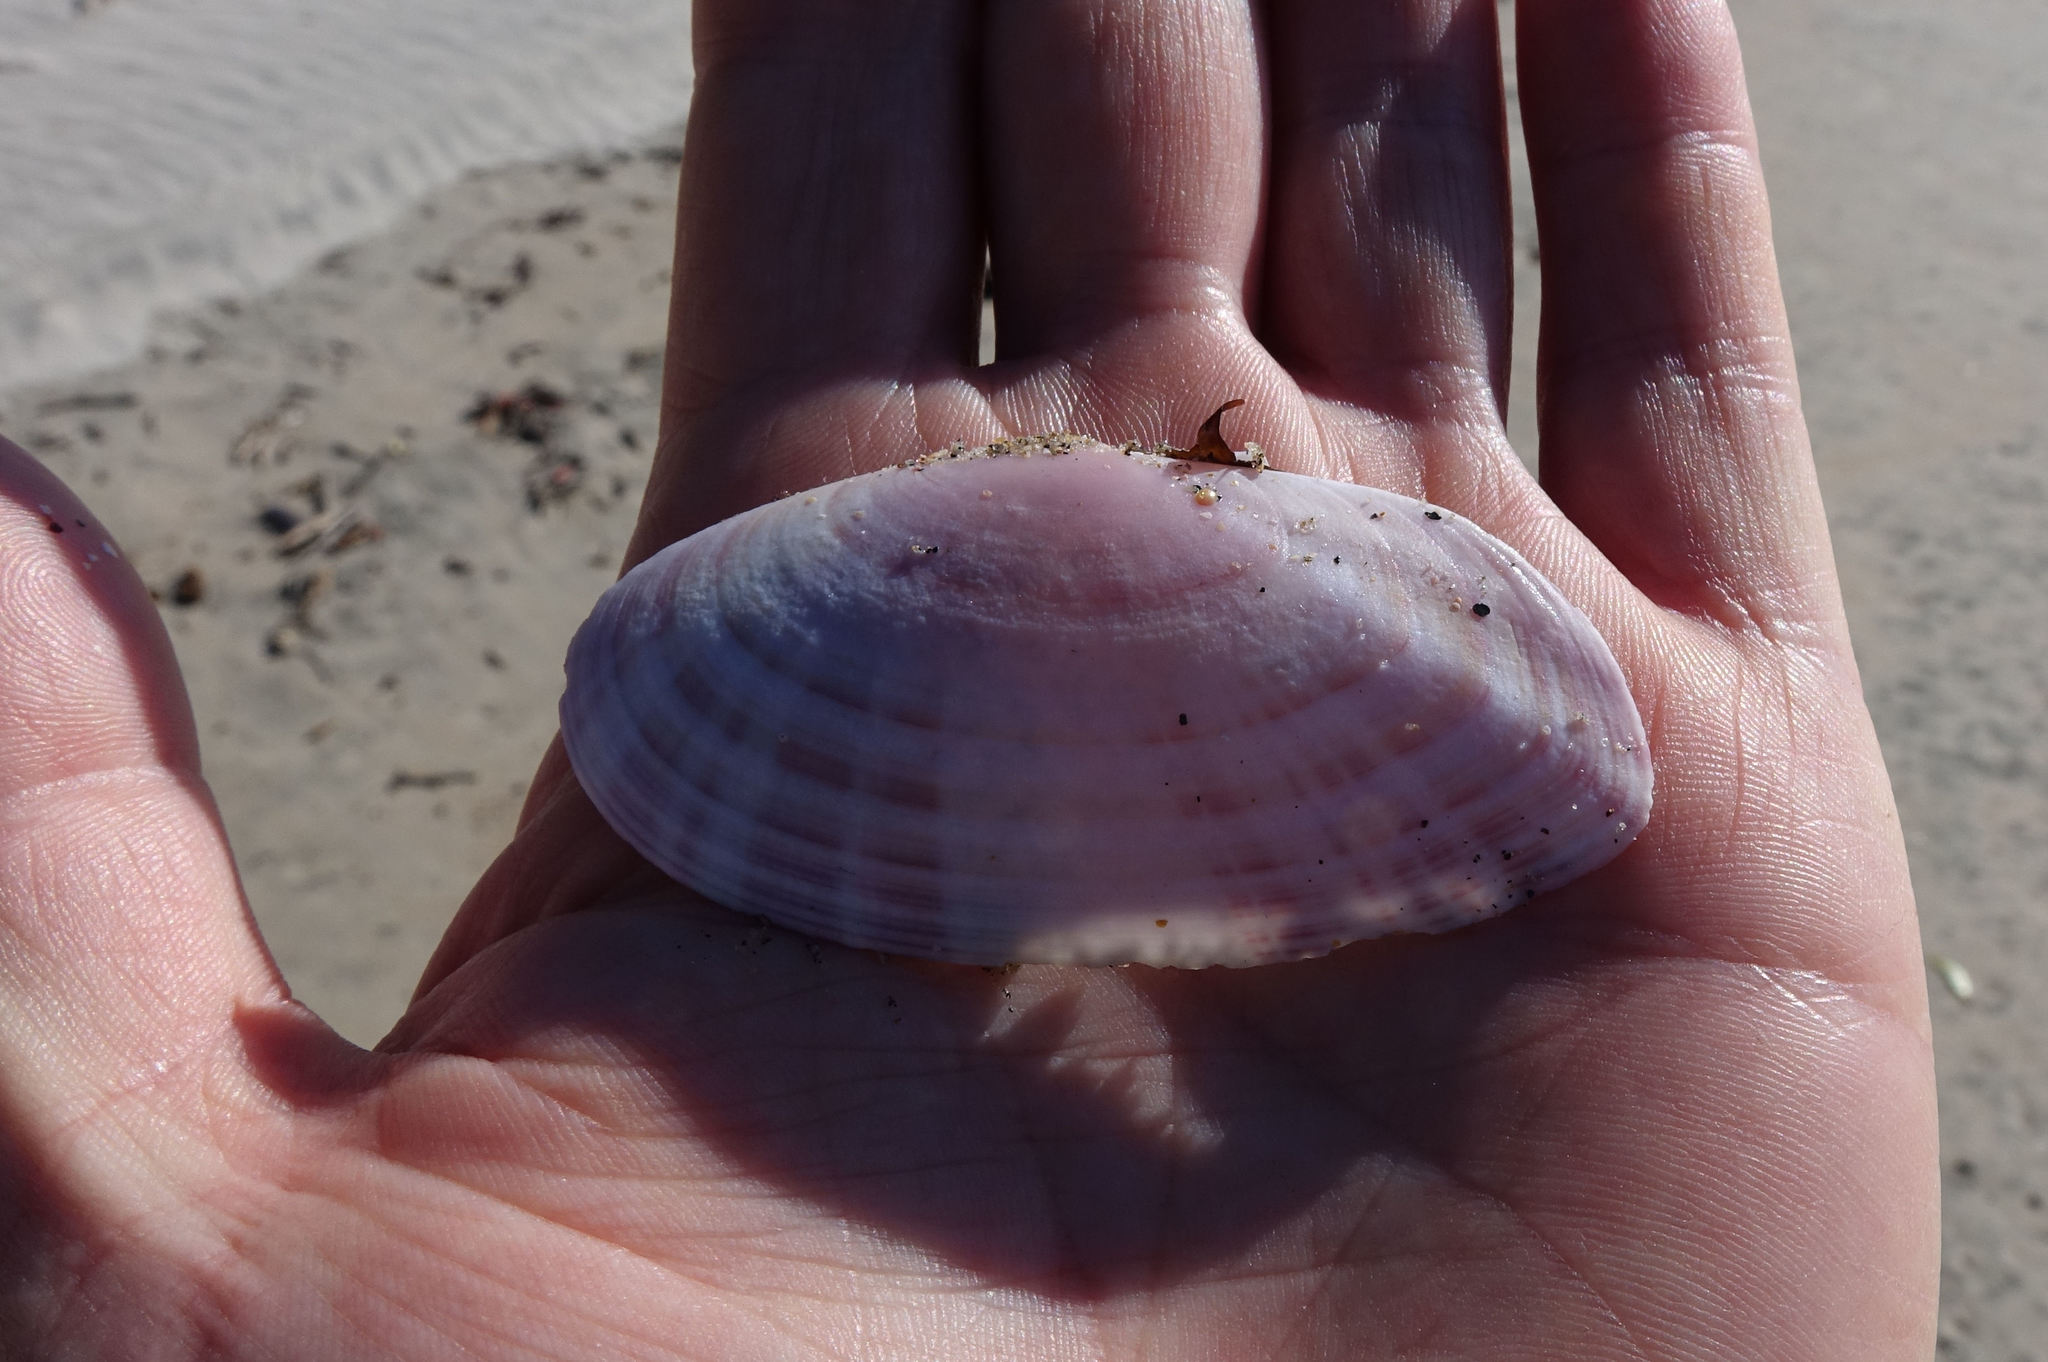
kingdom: Animalia
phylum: Mollusca
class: Bivalvia
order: Cardiida
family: Psammobiidae
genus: Gari
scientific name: Gari convexa
